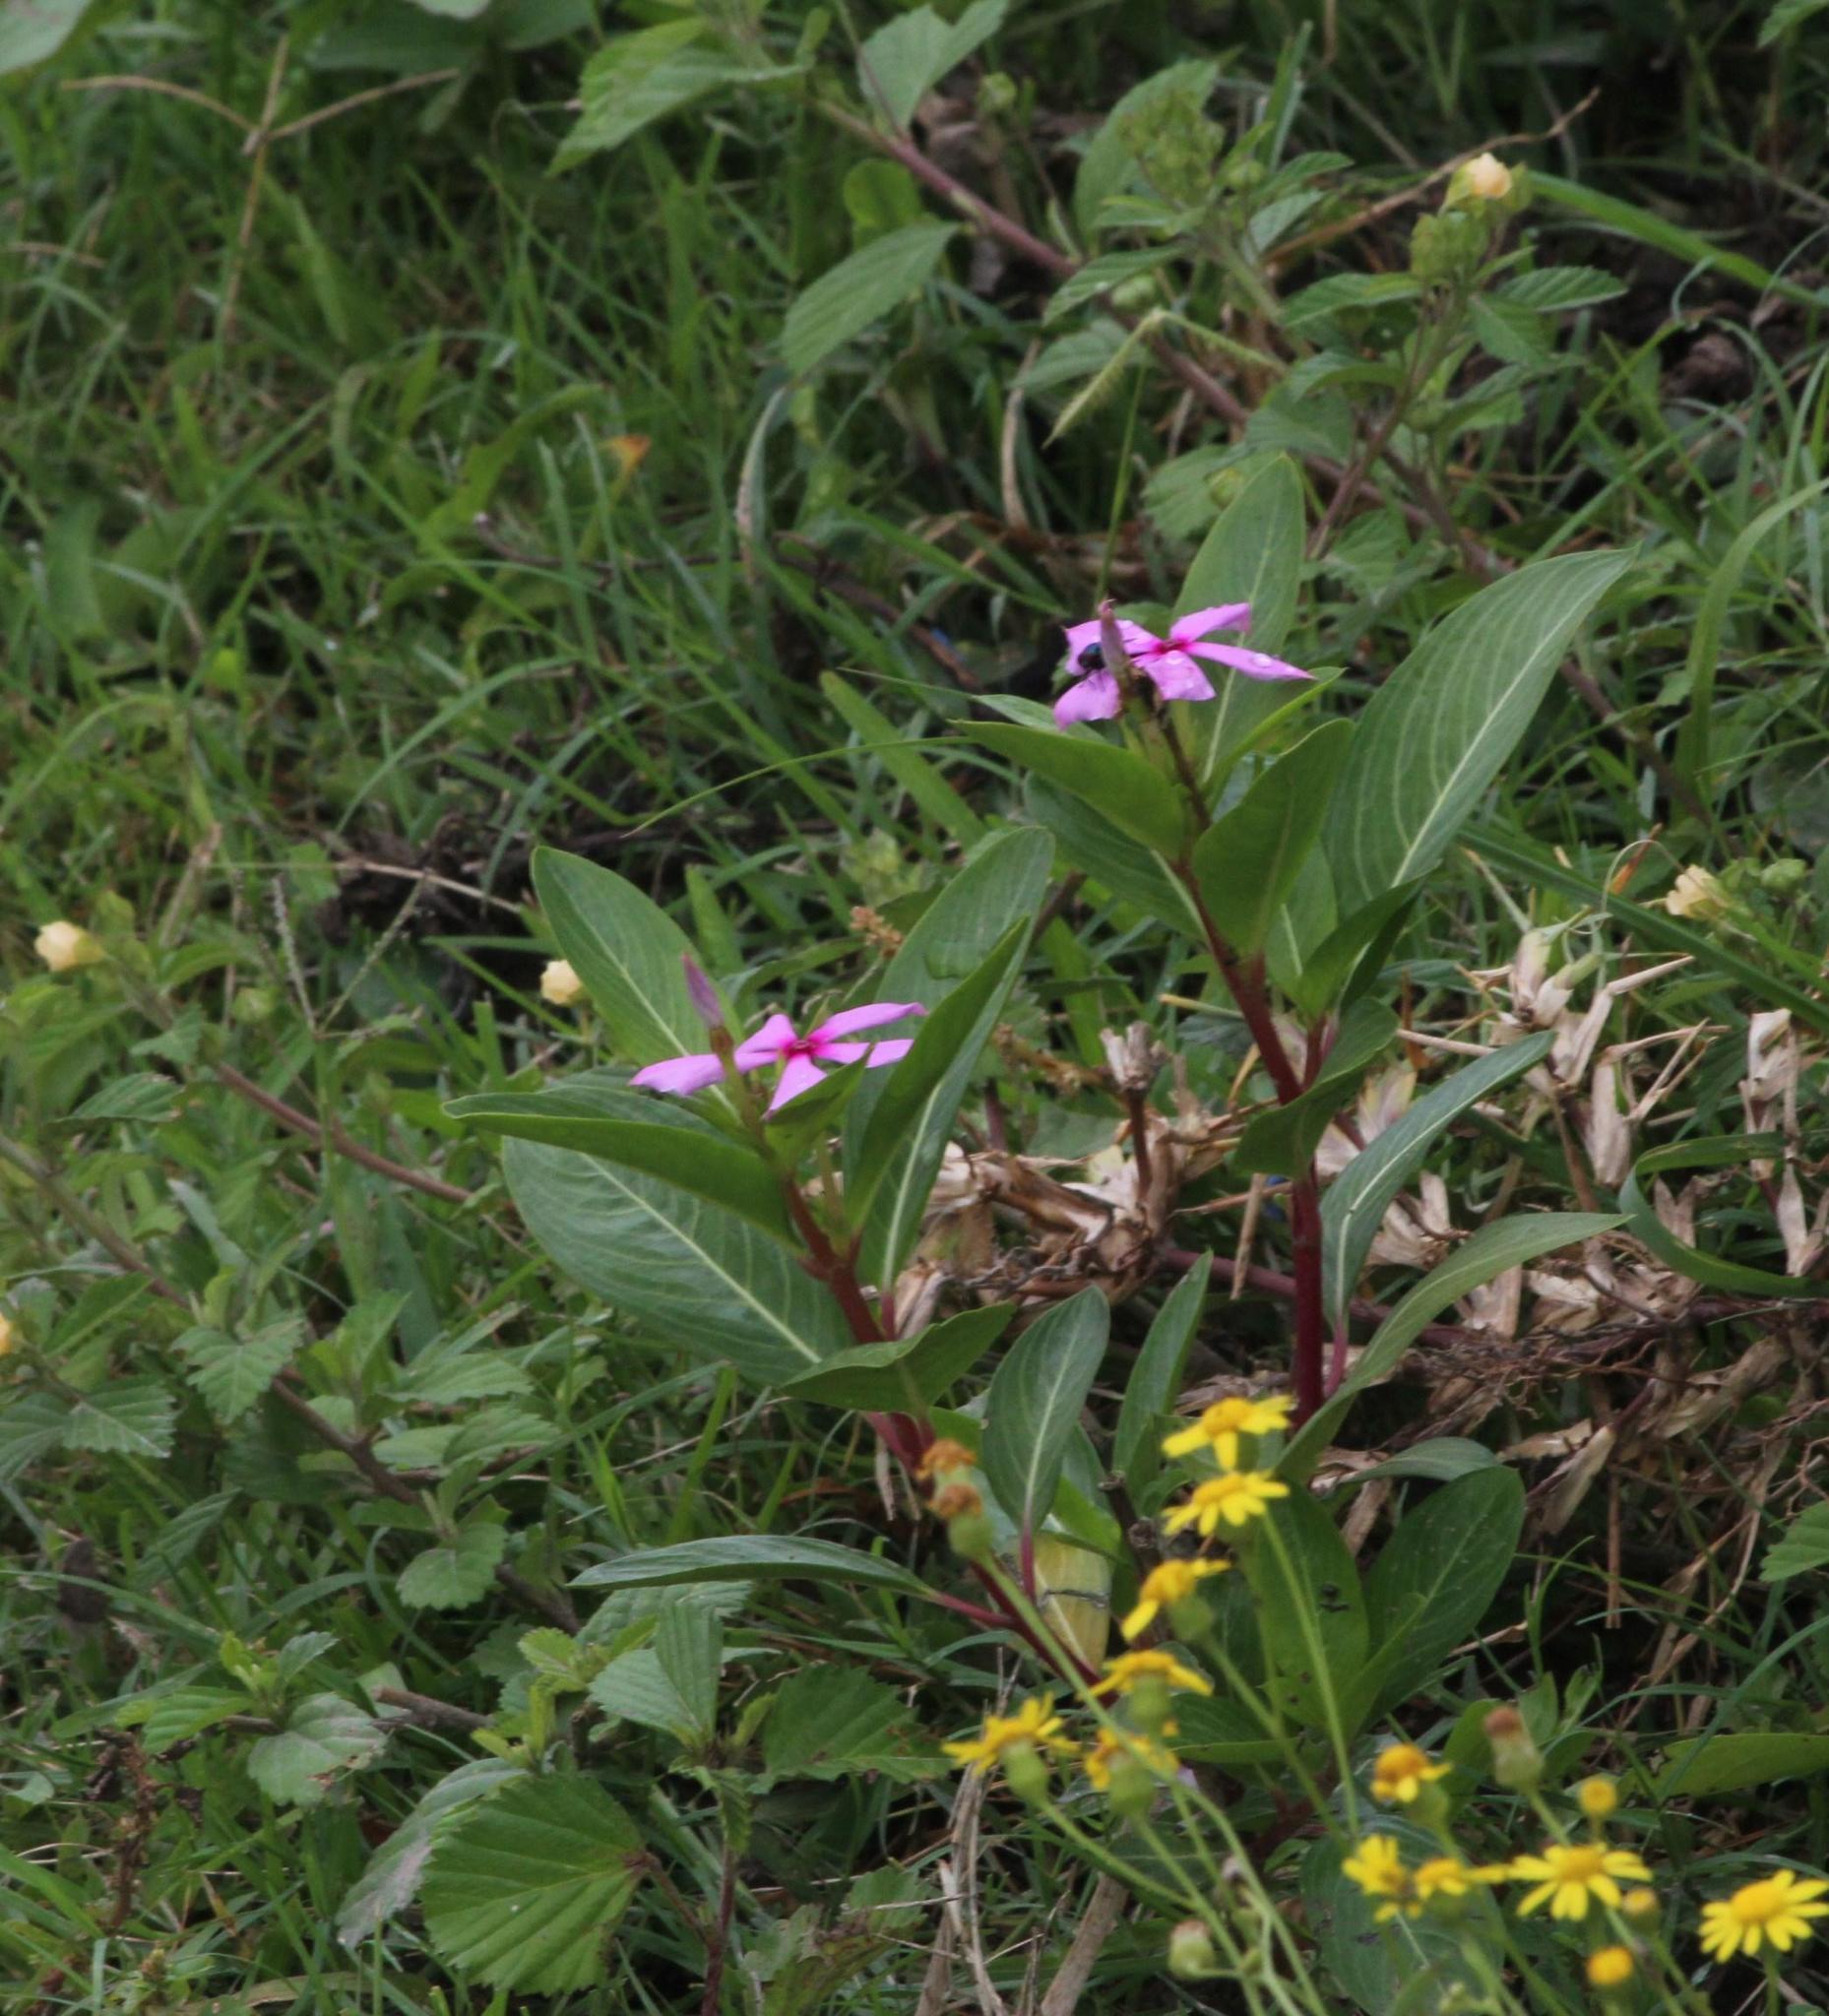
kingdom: Plantae
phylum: Tracheophyta
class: Magnoliopsida
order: Gentianales
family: Apocynaceae
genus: Catharanthus
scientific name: Catharanthus roseus
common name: Madagascar periwinkle
